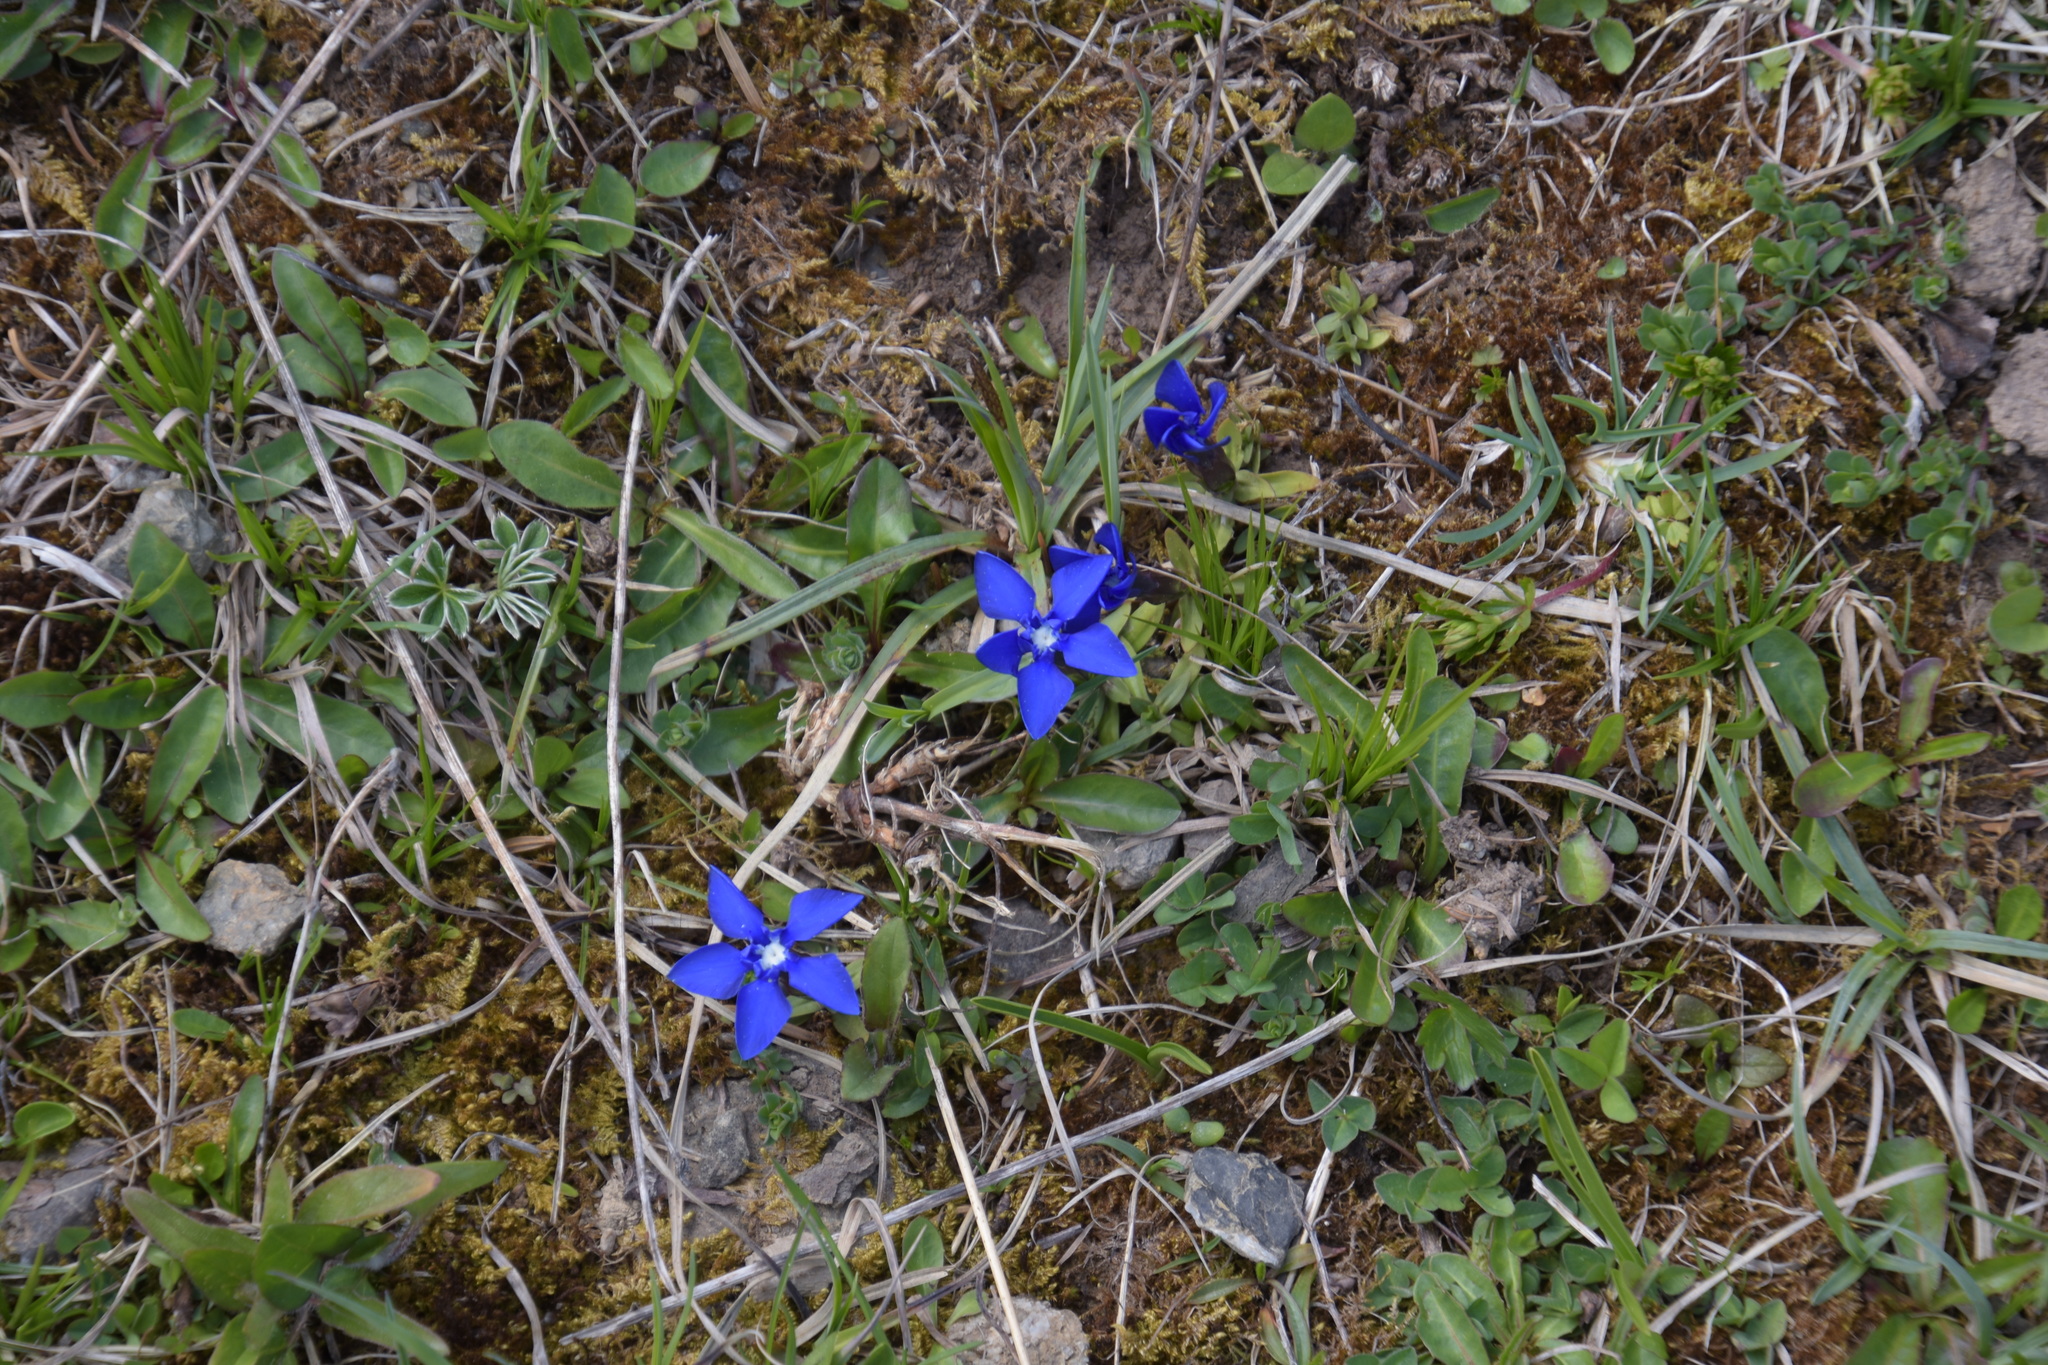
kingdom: Plantae
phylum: Tracheophyta
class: Magnoliopsida
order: Gentianales
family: Gentianaceae
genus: Gentiana
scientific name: Gentiana verna
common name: Spring gentian
